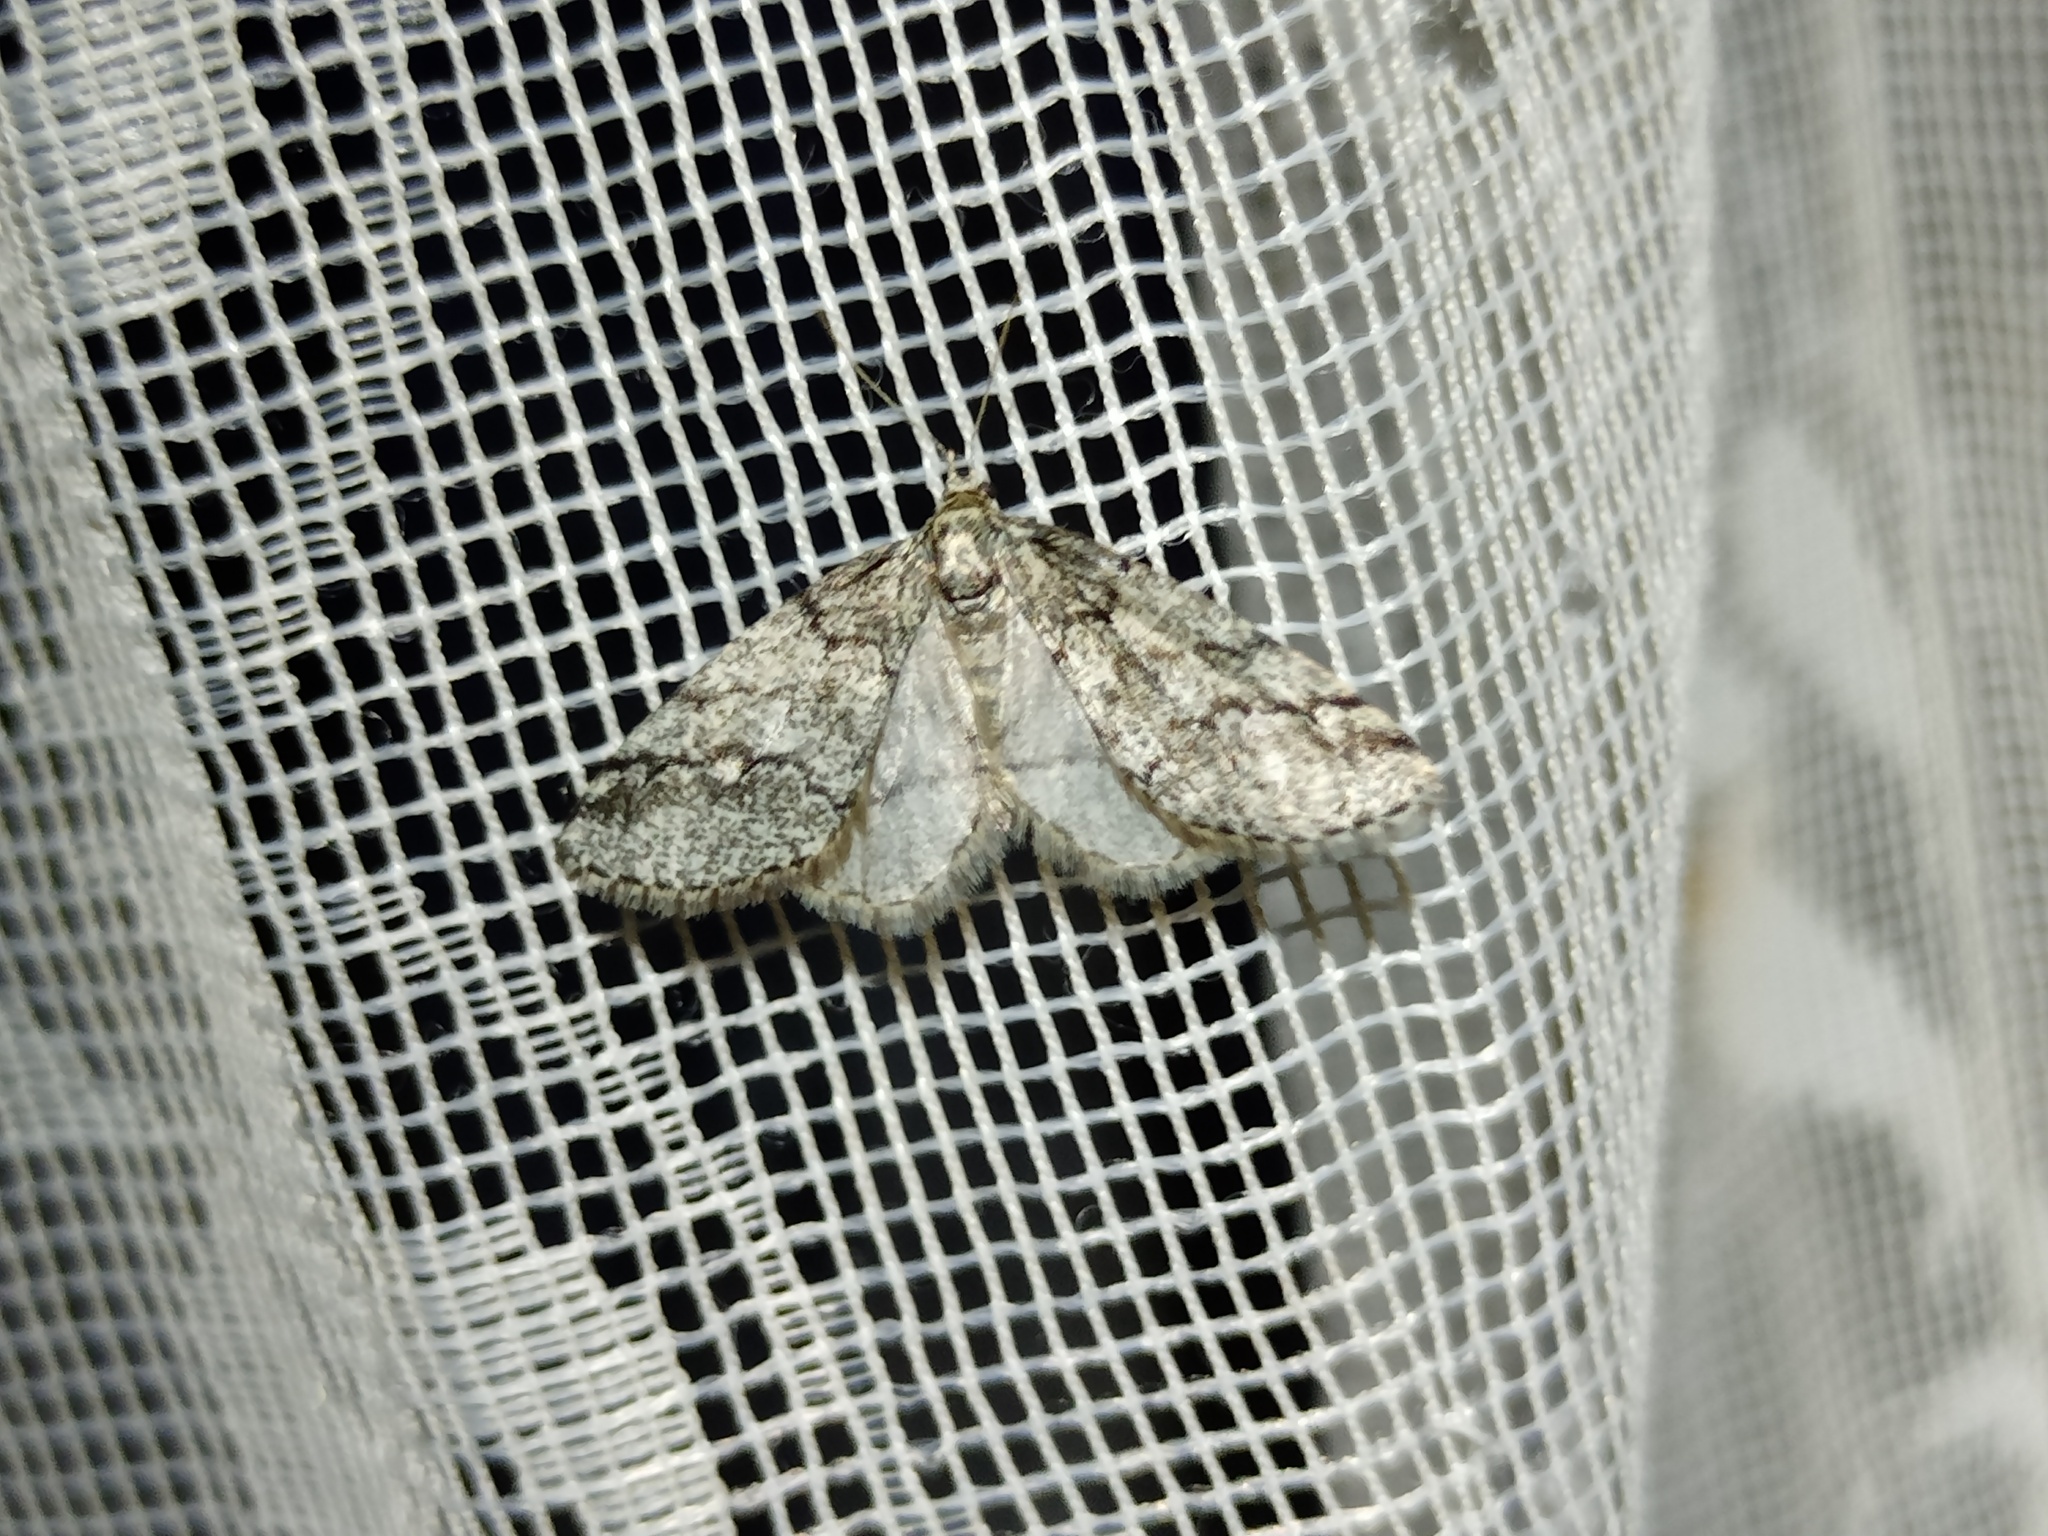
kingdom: Animalia
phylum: Arthropoda
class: Insecta
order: Lepidoptera
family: Geometridae
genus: Tephronia
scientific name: Tephronia lhommaria
